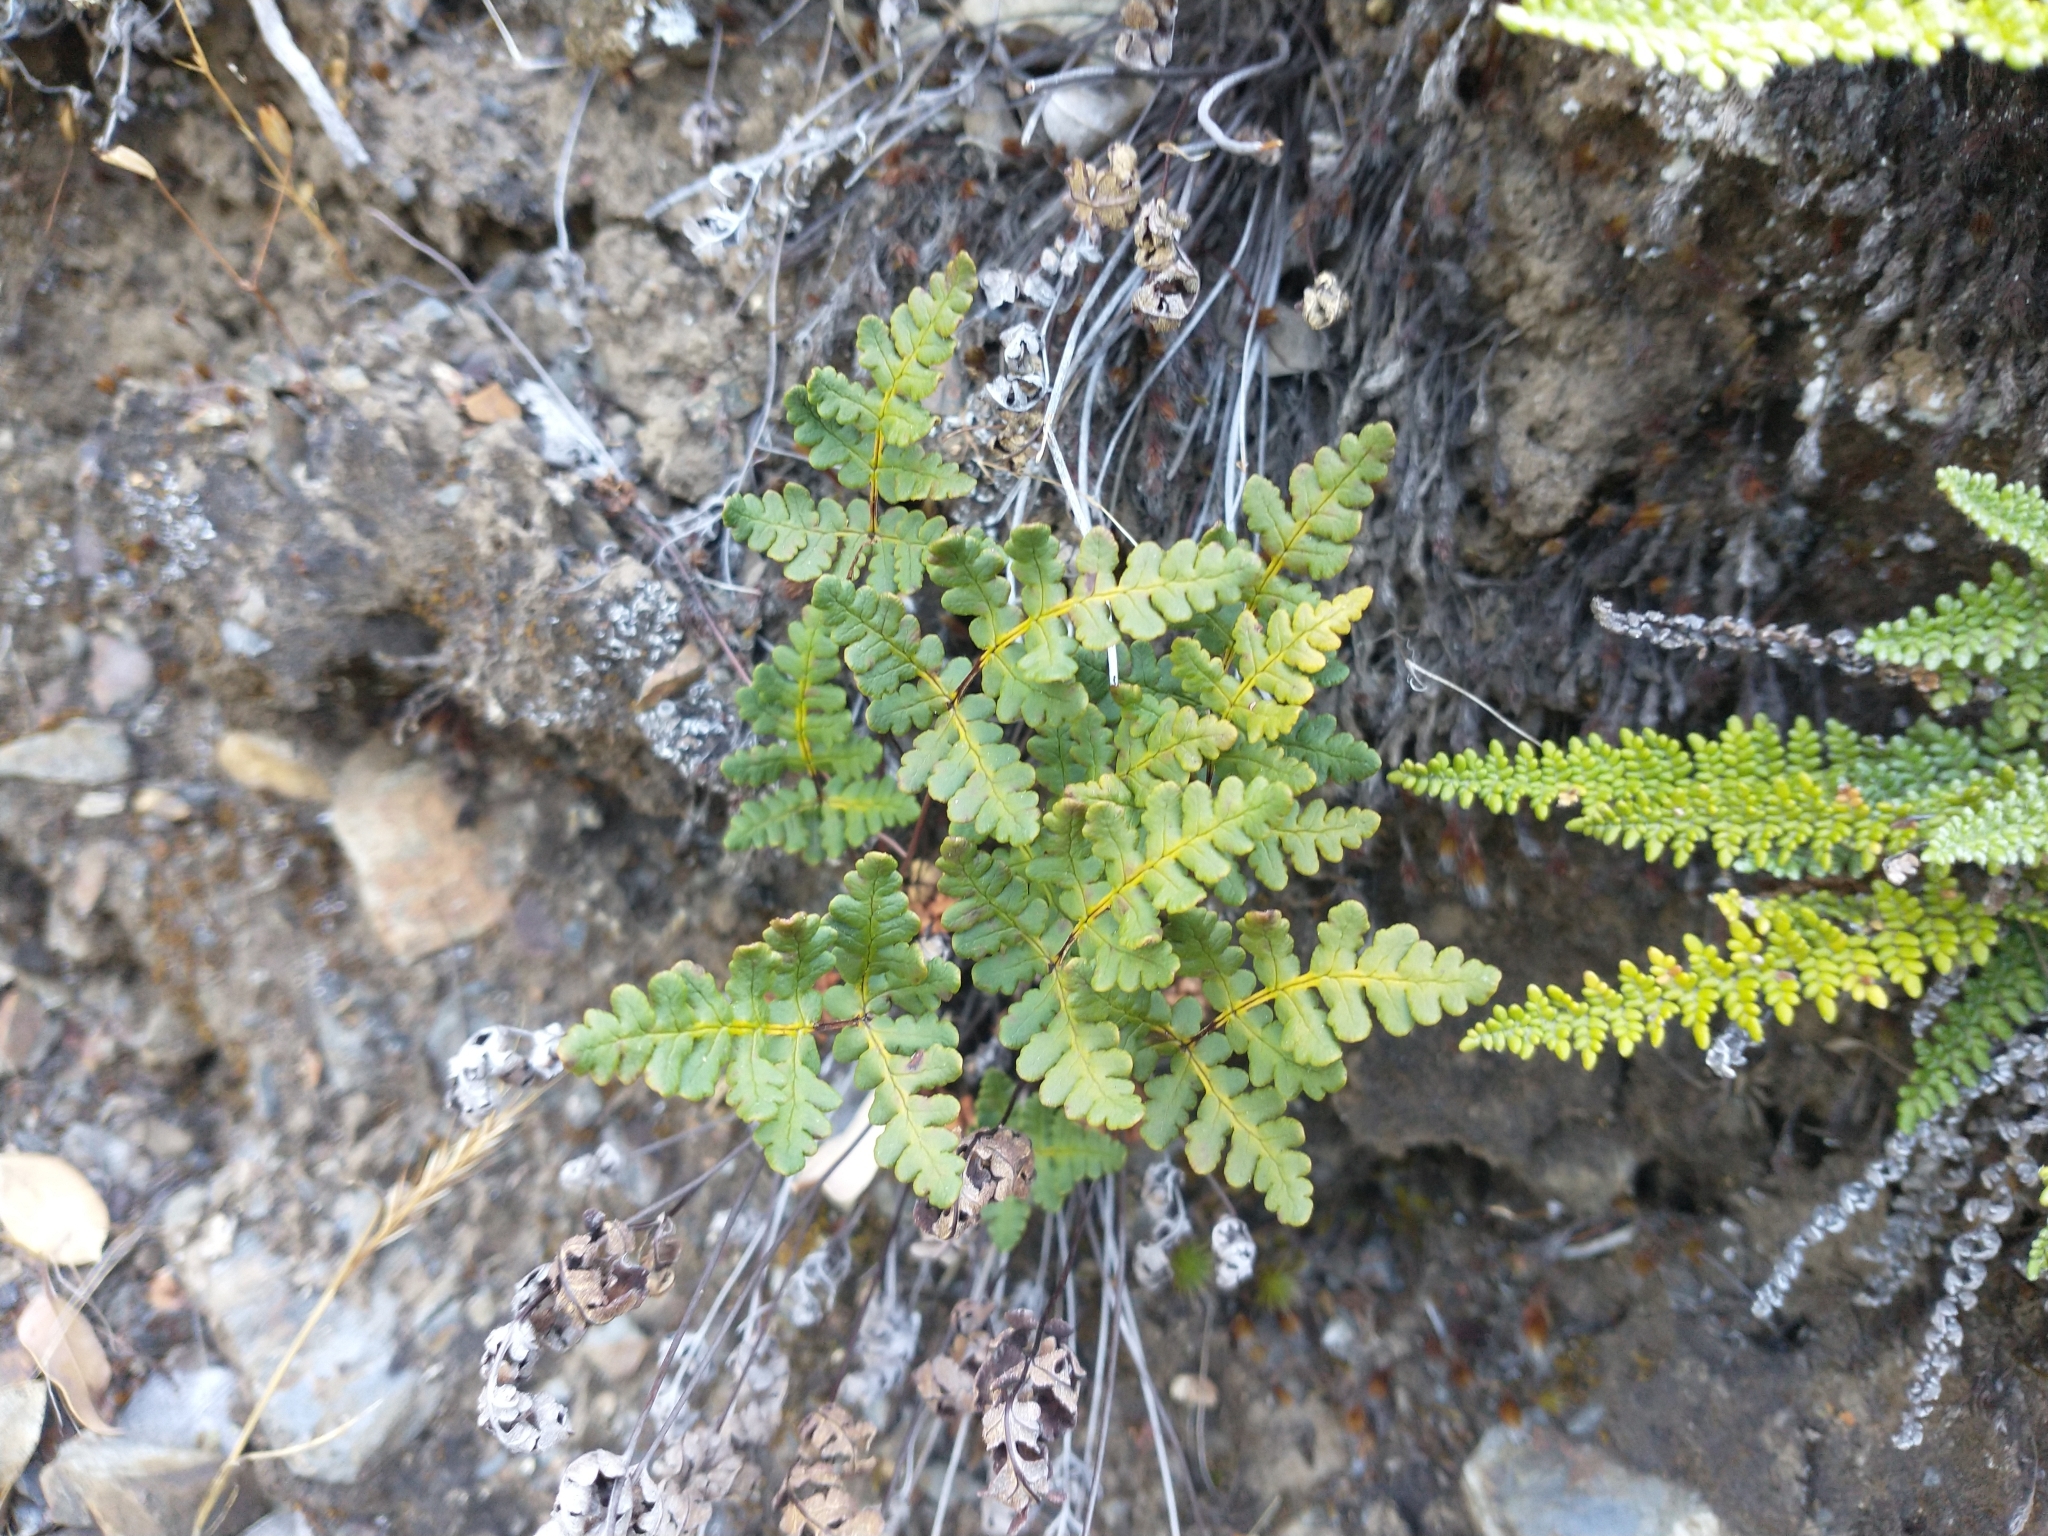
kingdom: Plantae
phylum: Tracheophyta
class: Polypodiopsida
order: Polypodiales
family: Pteridaceae
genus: Pentagramma
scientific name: Pentagramma triangularis
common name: Gold fern
